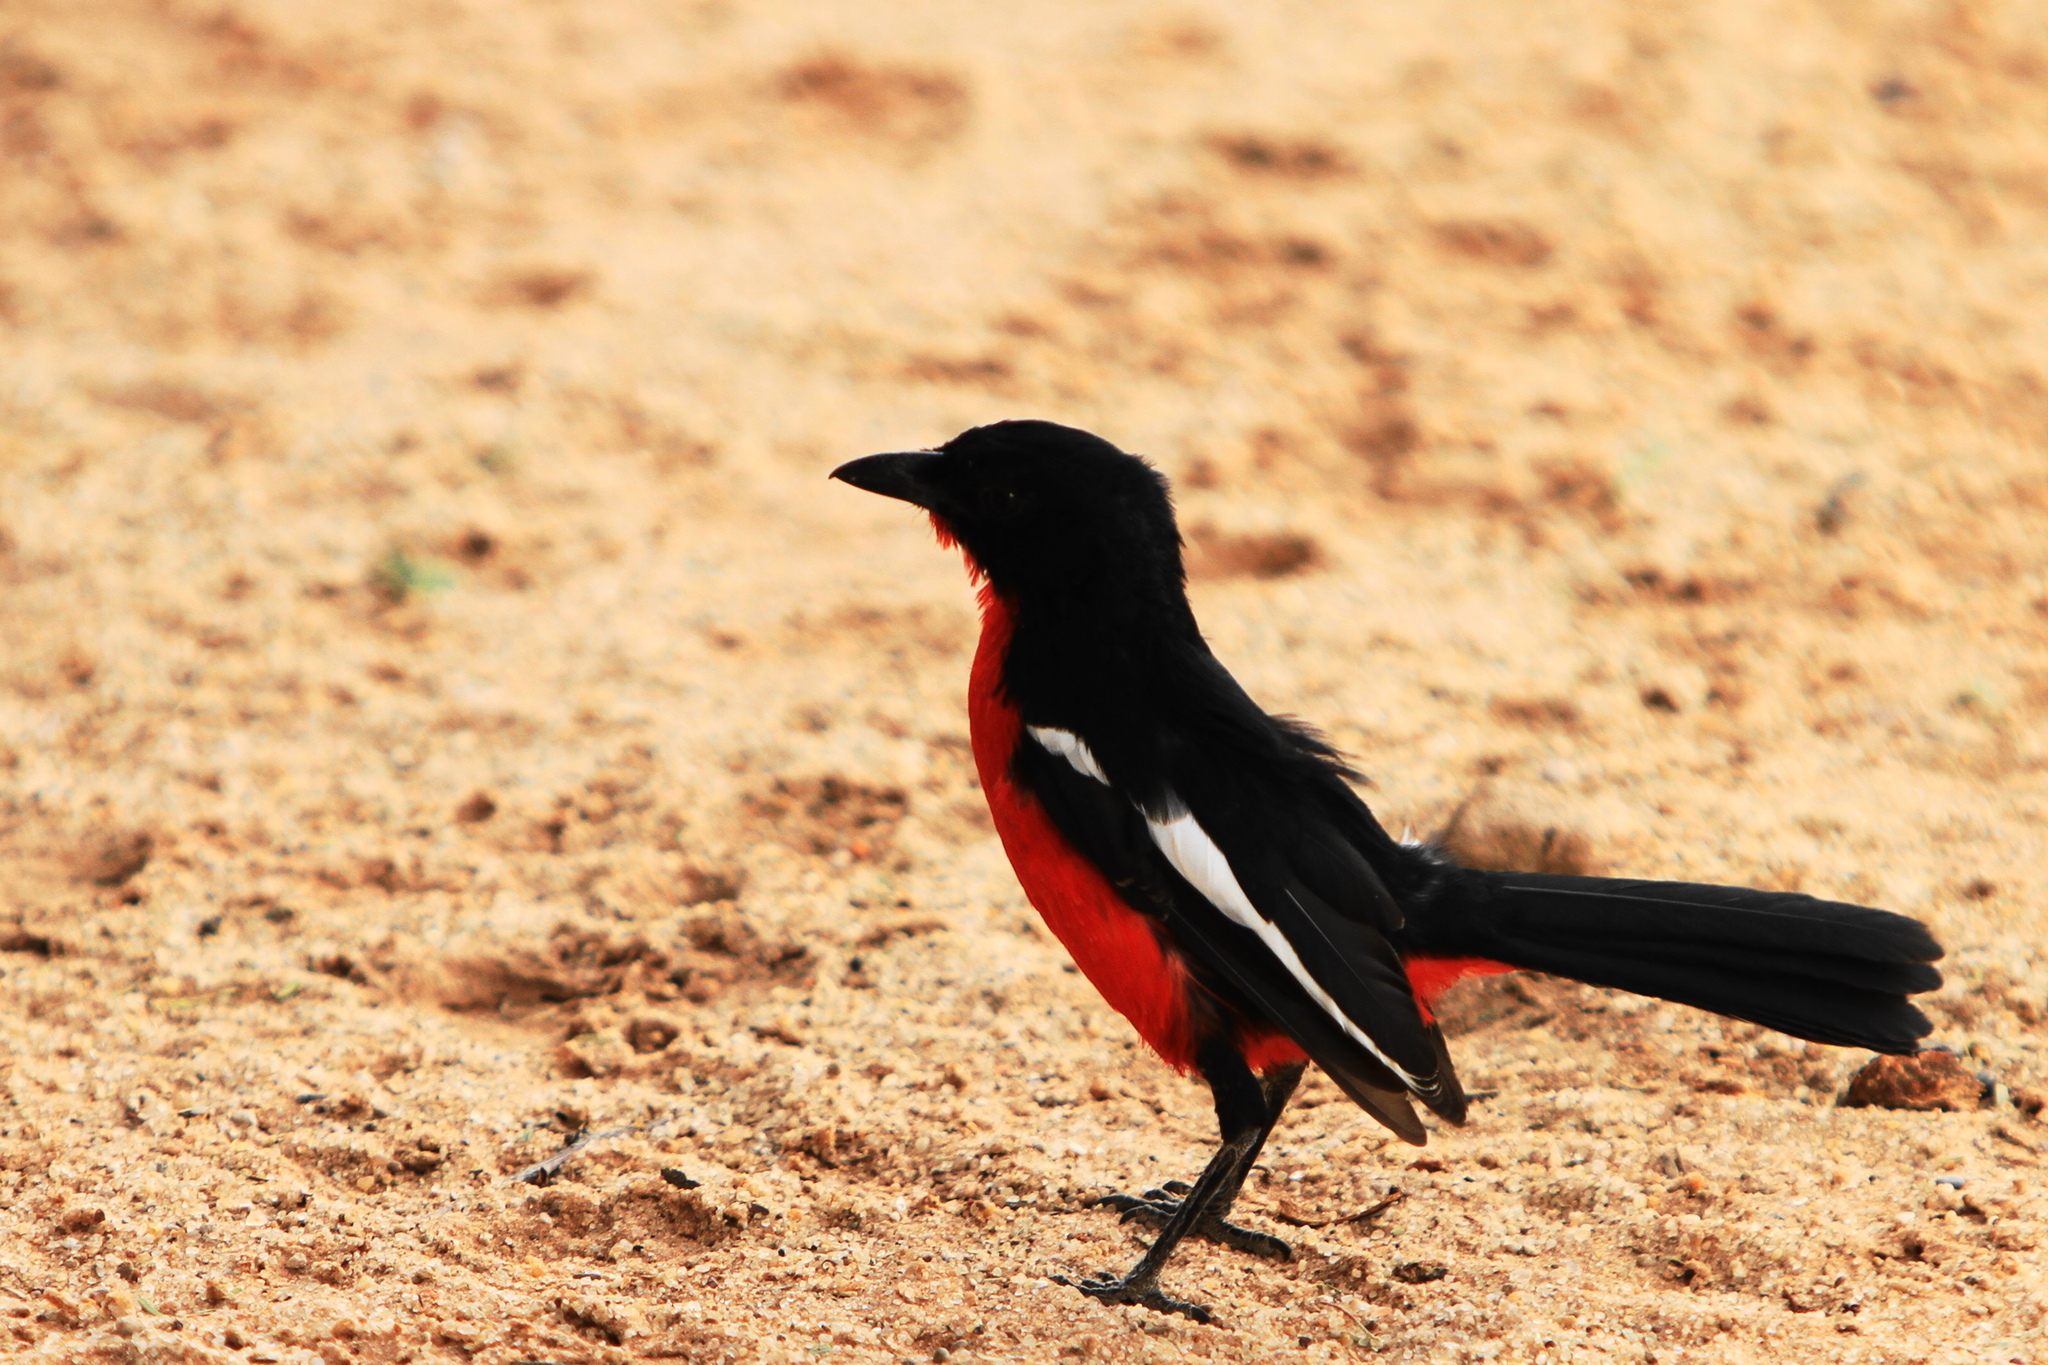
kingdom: Animalia
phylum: Chordata
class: Aves
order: Passeriformes
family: Malaconotidae
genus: Laniarius
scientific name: Laniarius atrococcineus
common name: Crimson-breasted shrike
